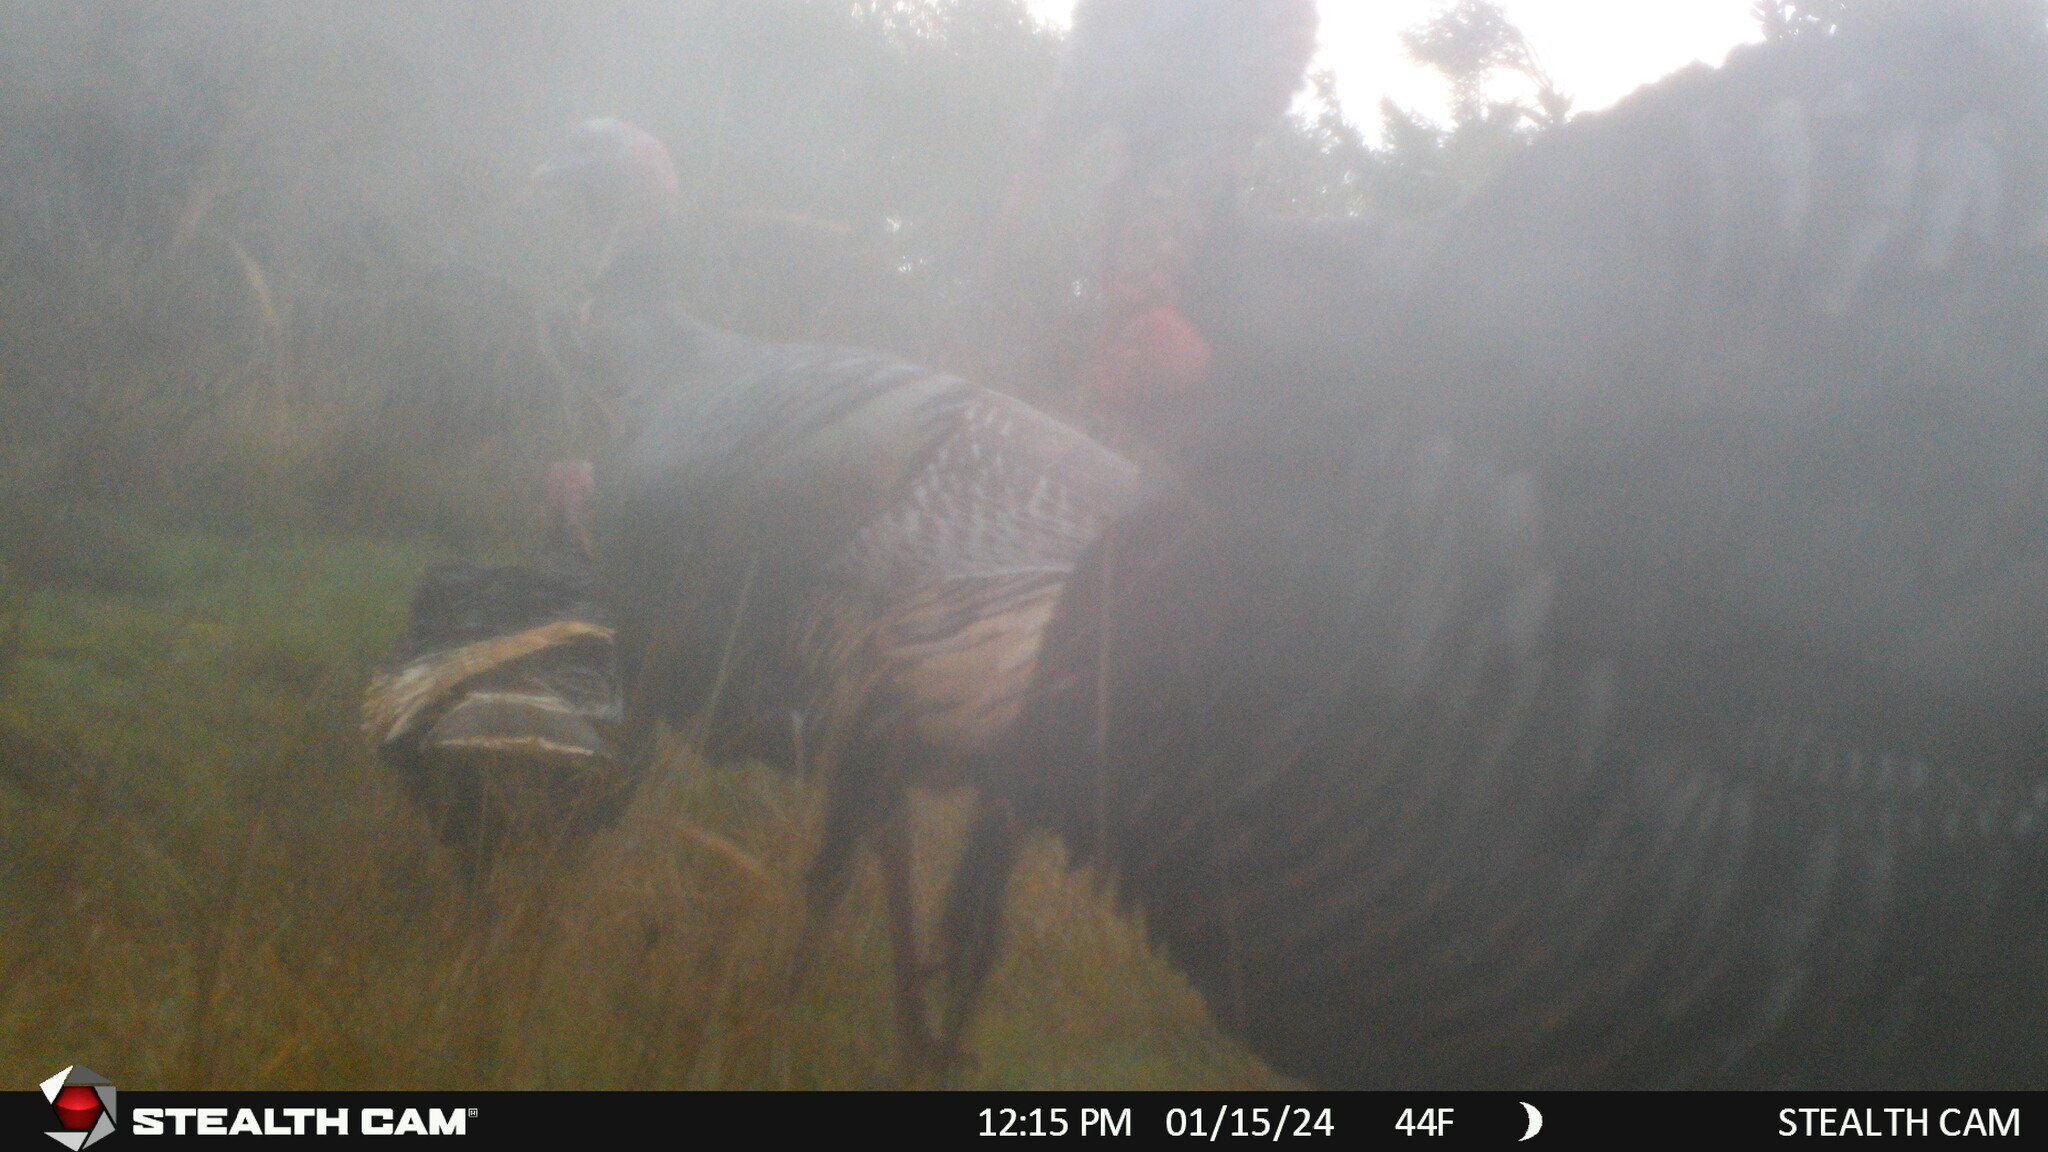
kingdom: Animalia
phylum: Chordata
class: Aves
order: Galliformes
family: Phasianidae
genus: Meleagris
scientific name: Meleagris gallopavo
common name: Wild turkey
